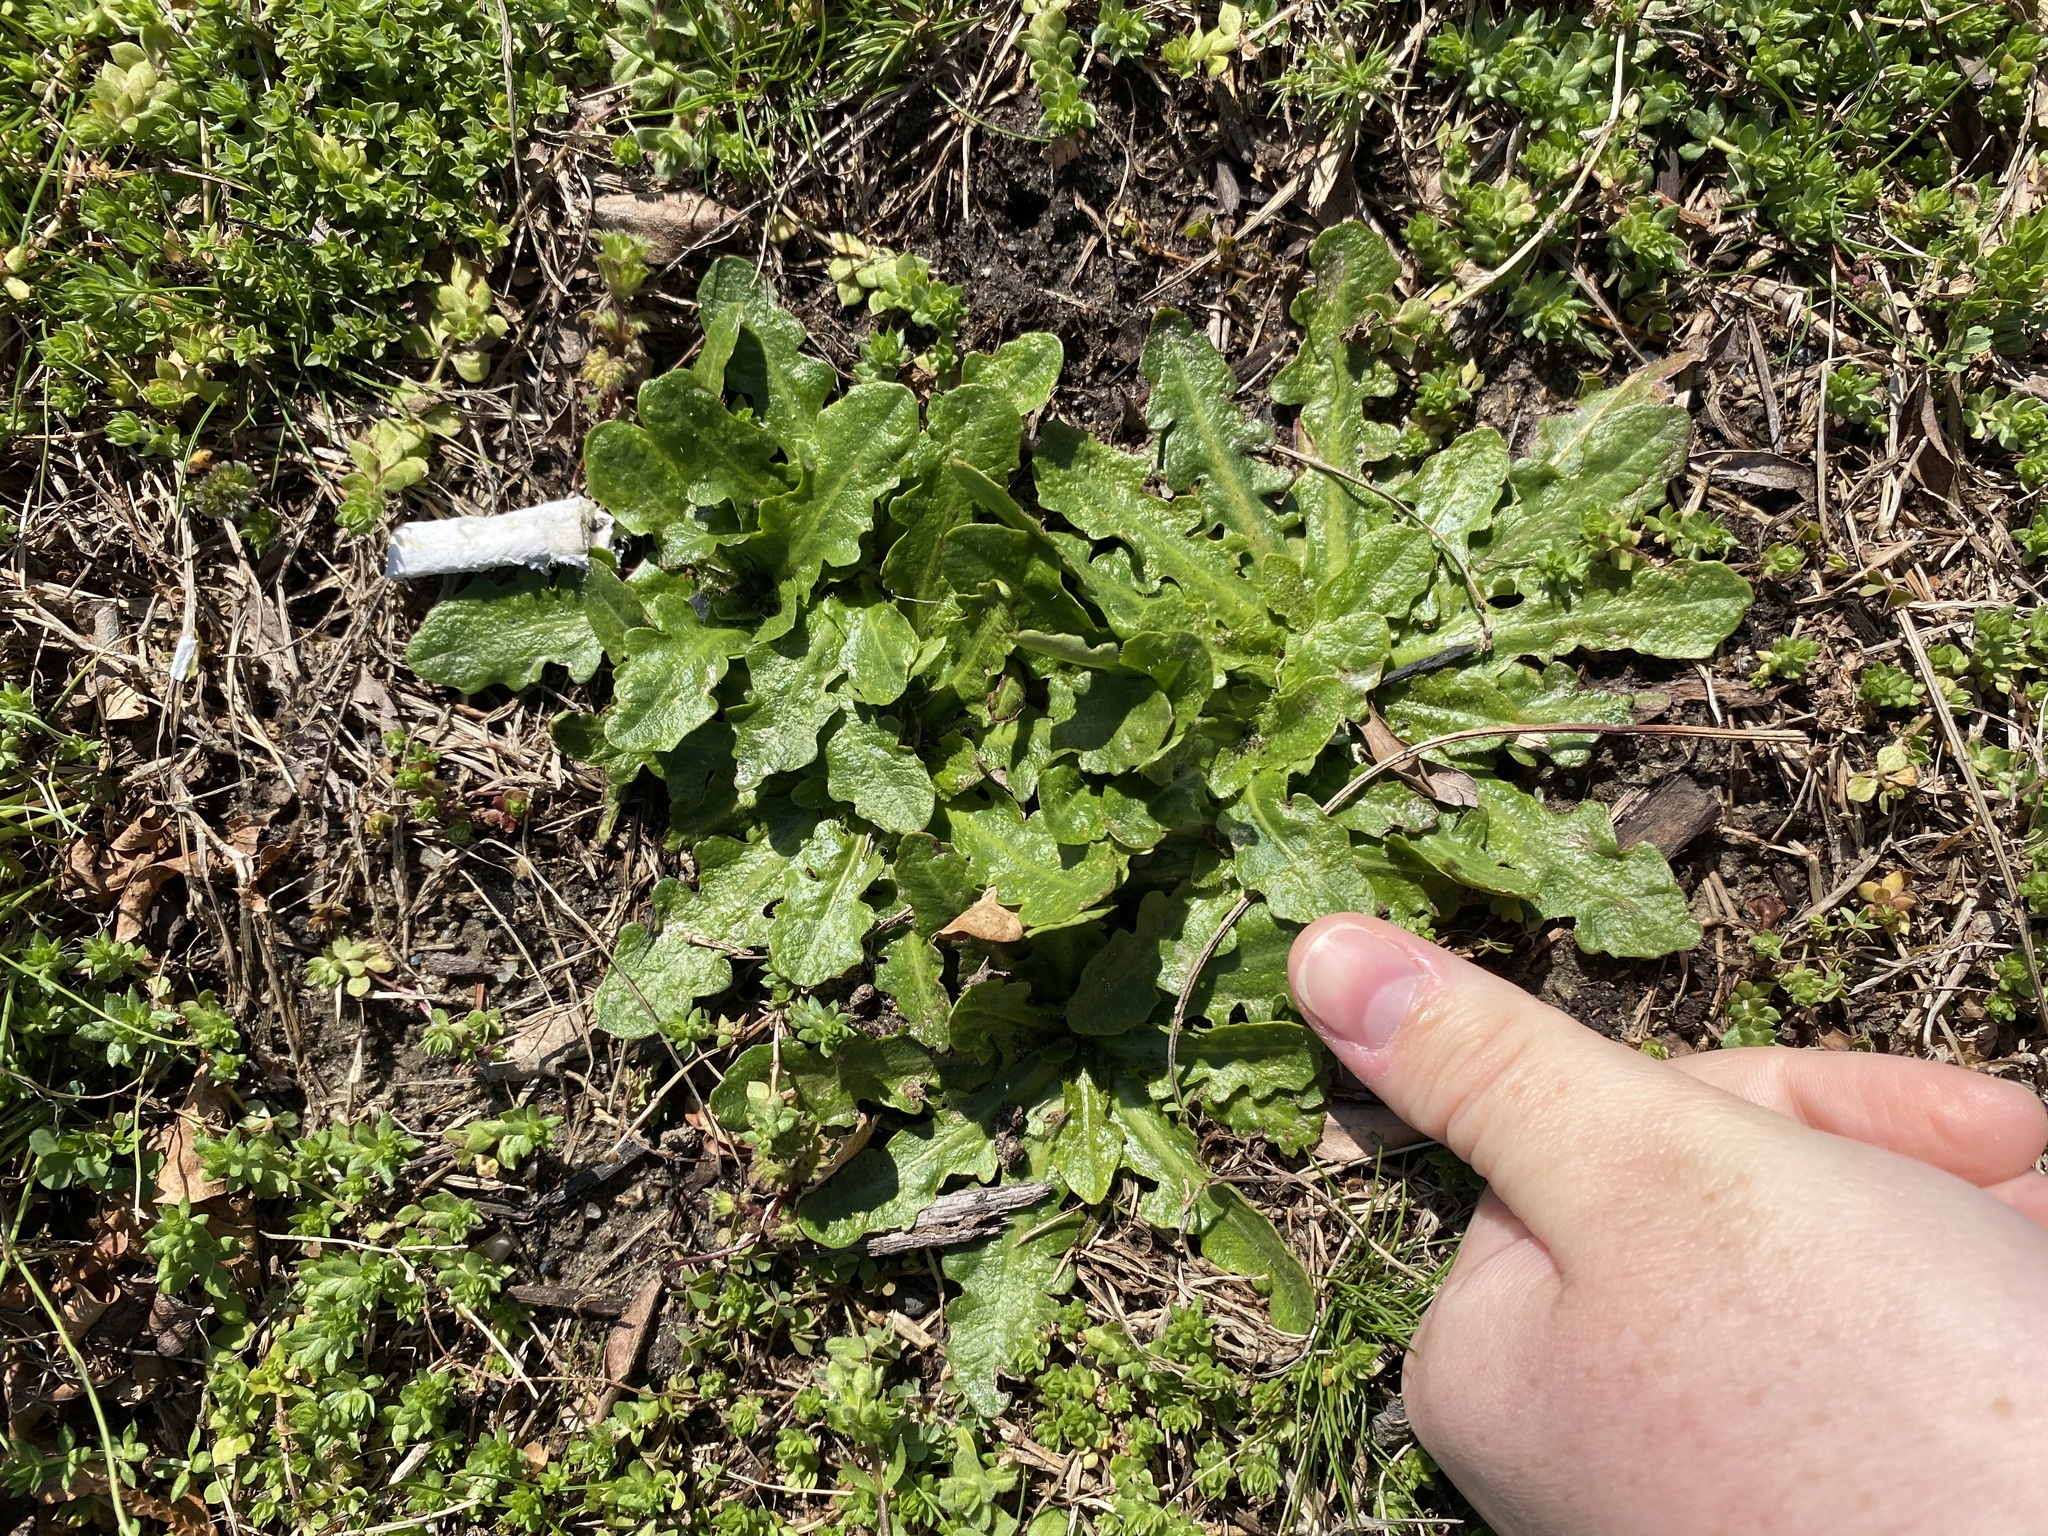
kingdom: Plantae
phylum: Tracheophyta
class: Magnoliopsida
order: Asterales
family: Asteraceae
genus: Hypochaeris
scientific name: Hypochaeris radicata
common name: Flatweed
